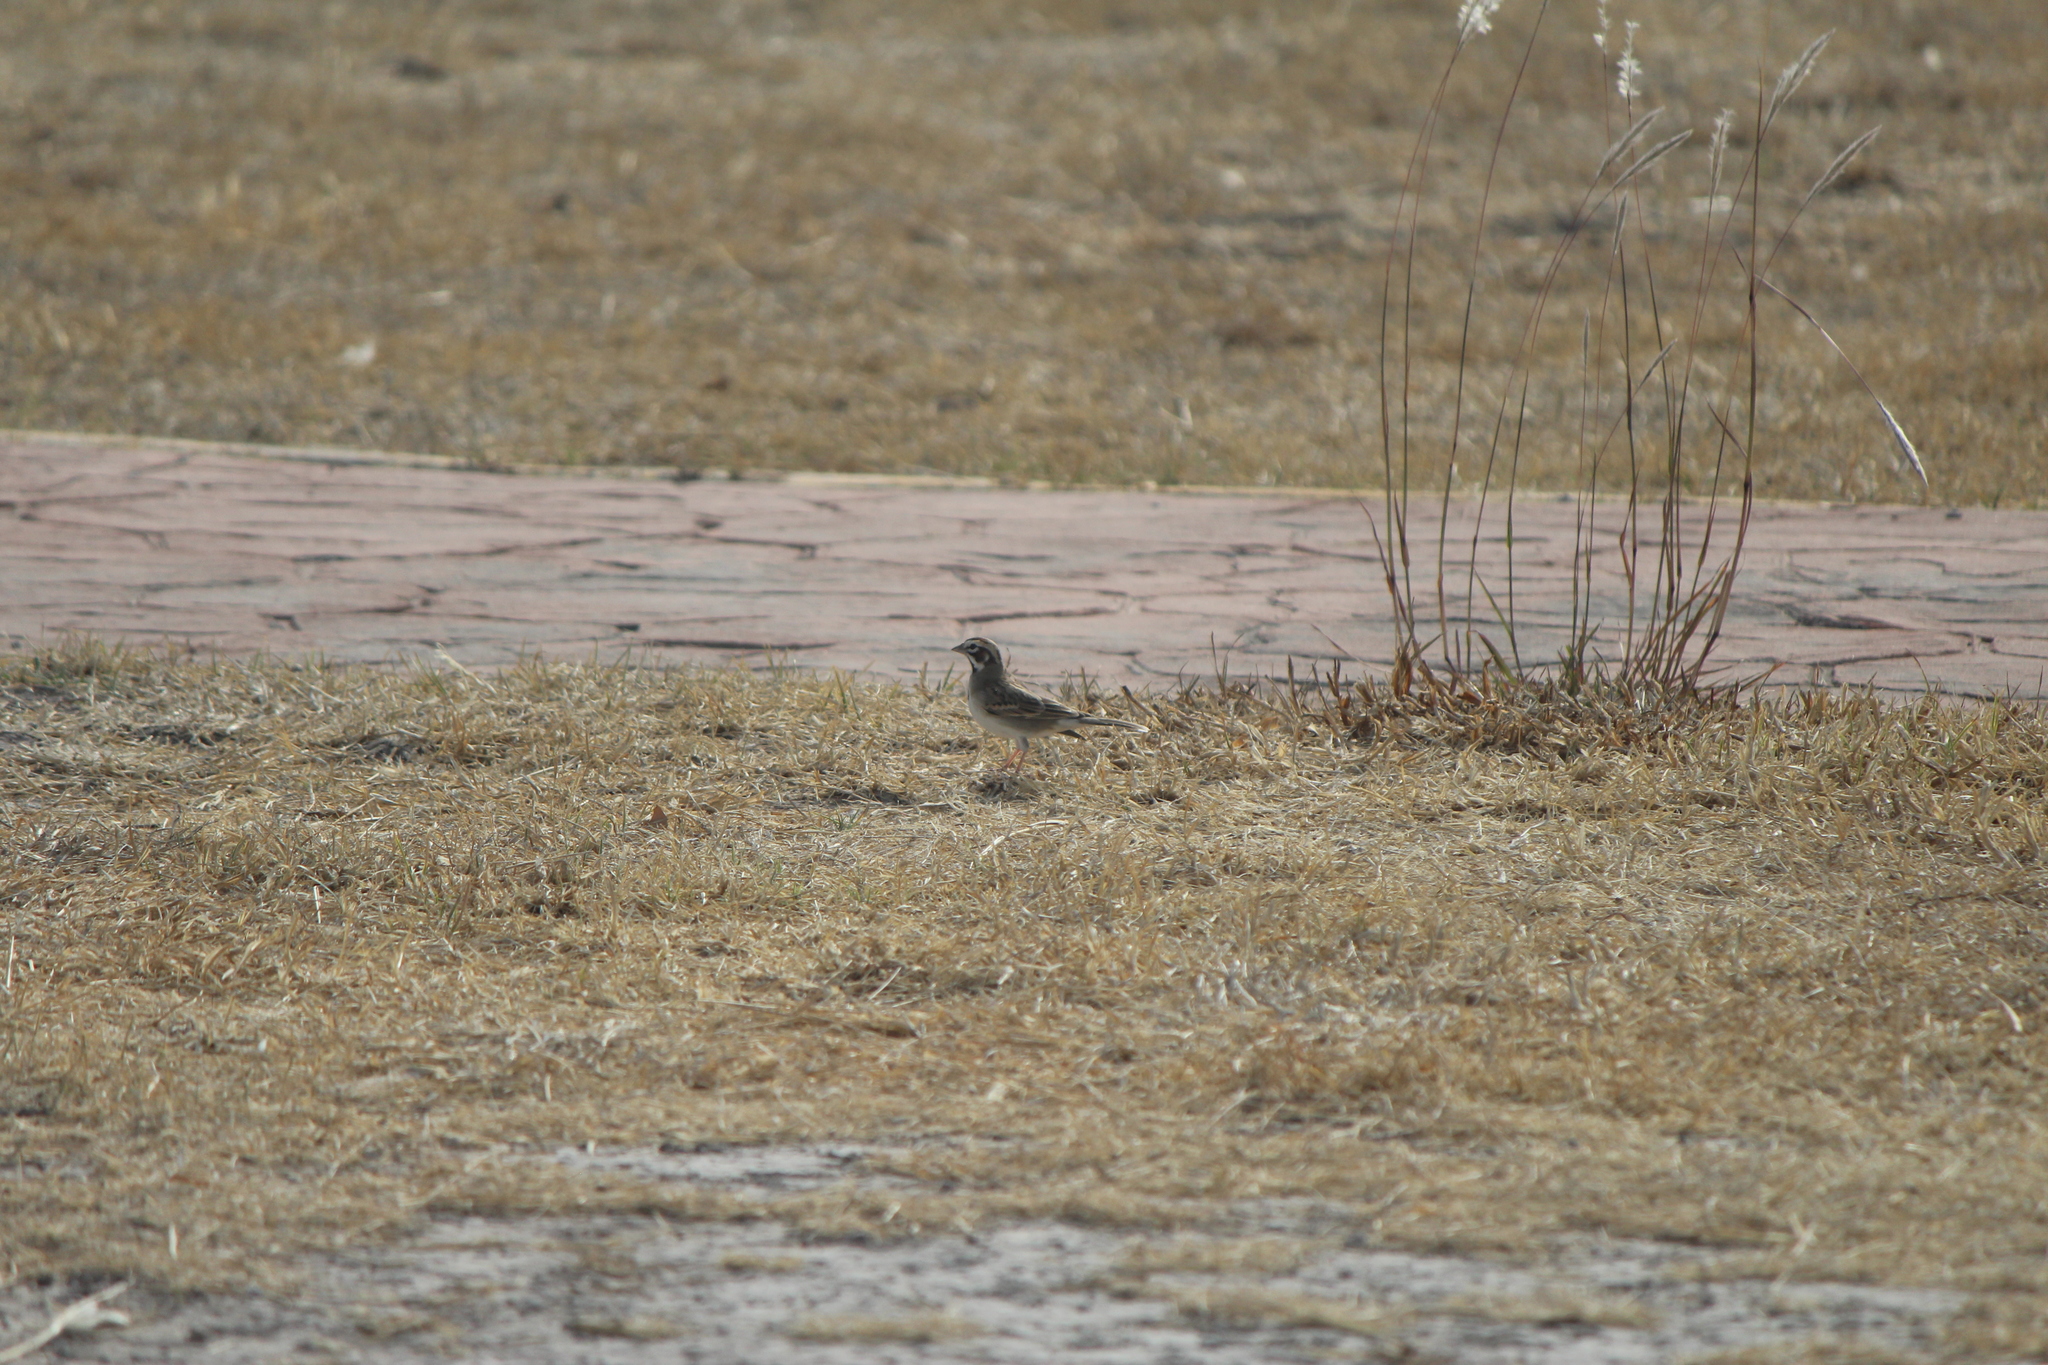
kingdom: Animalia
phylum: Chordata
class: Aves
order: Passeriformes
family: Passerellidae
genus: Chondestes
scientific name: Chondestes grammacus
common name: Lark sparrow
